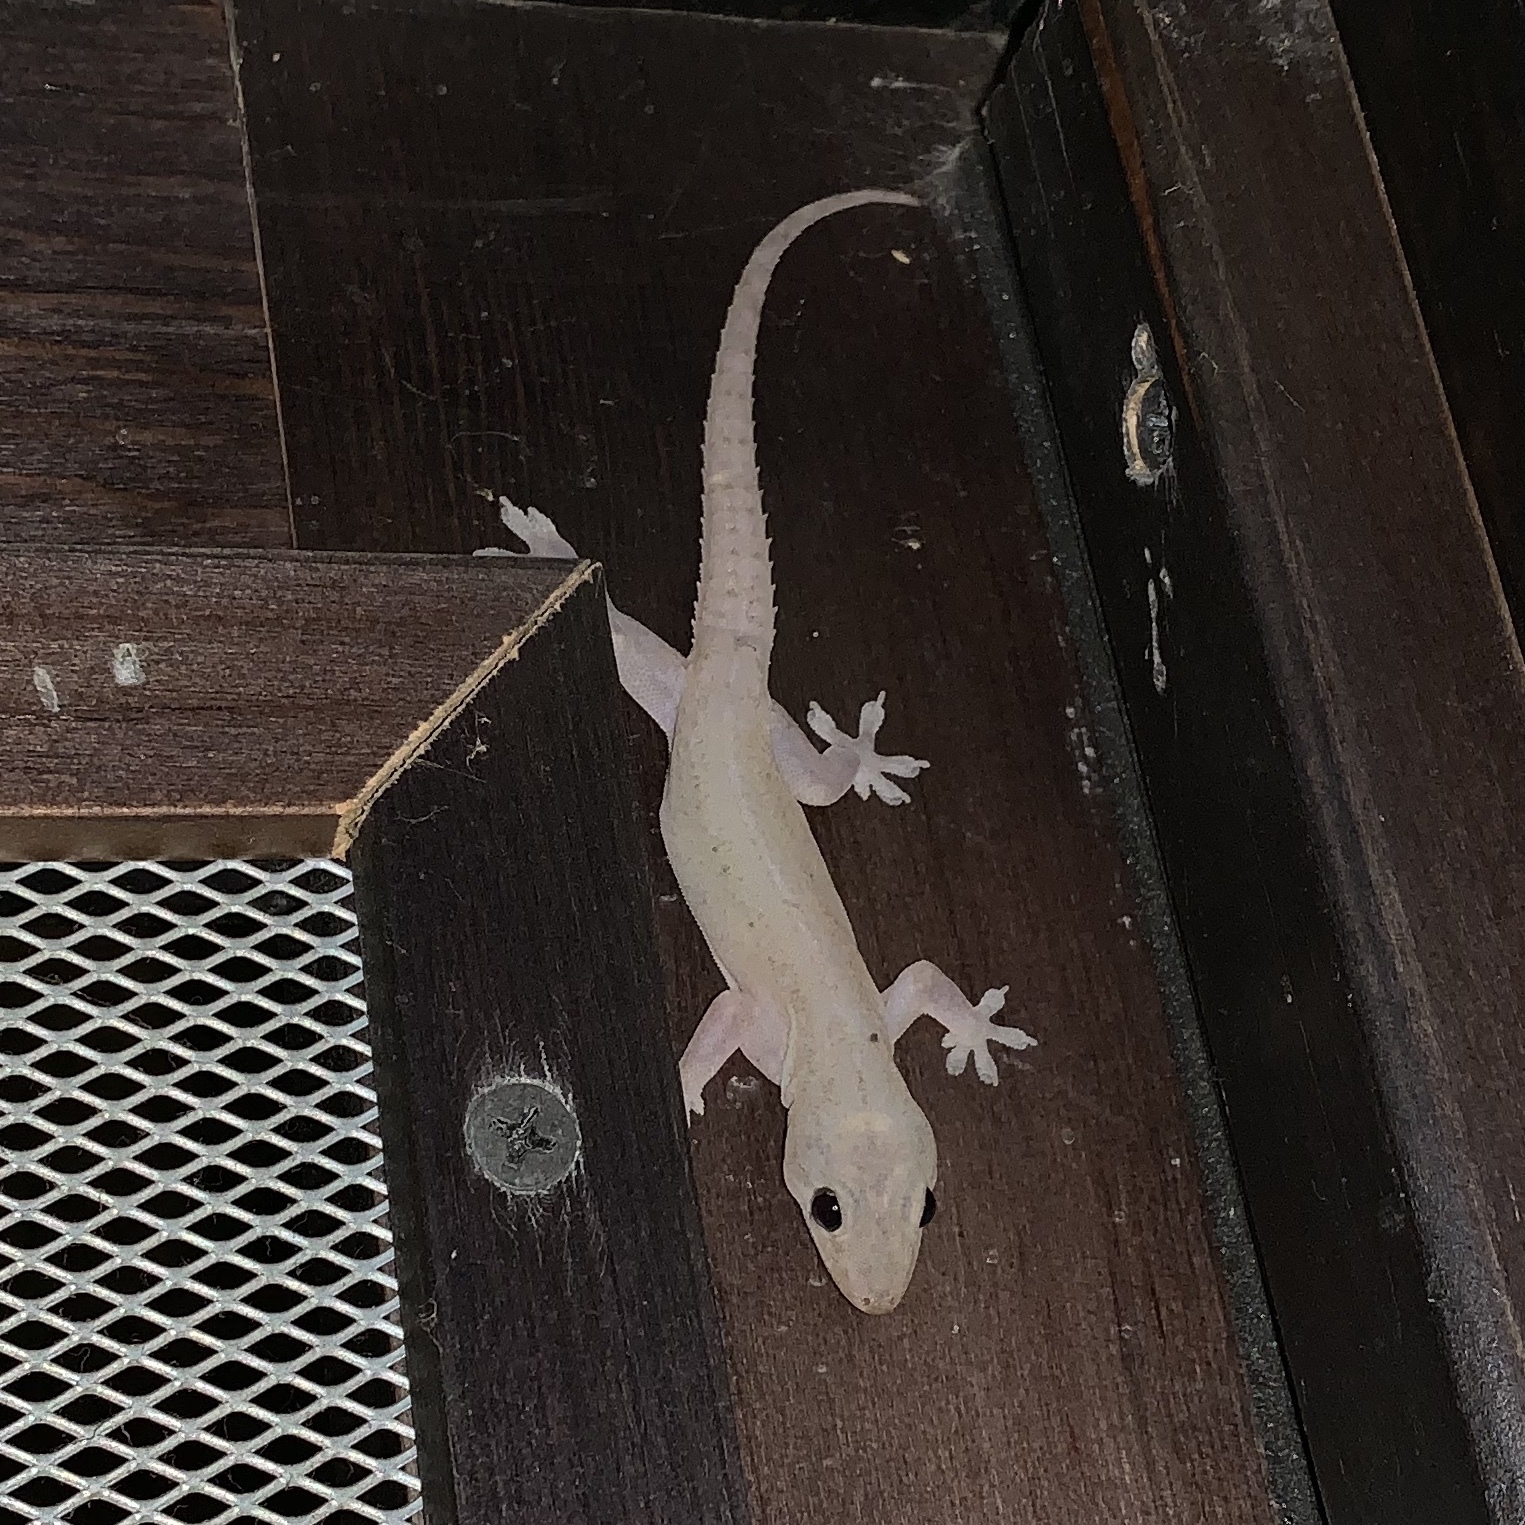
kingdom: Animalia
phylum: Chordata
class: Squamata
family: Gekkonidae
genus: Hemidactylus
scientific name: Hemidactylus frenatus
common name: Common house gecko
